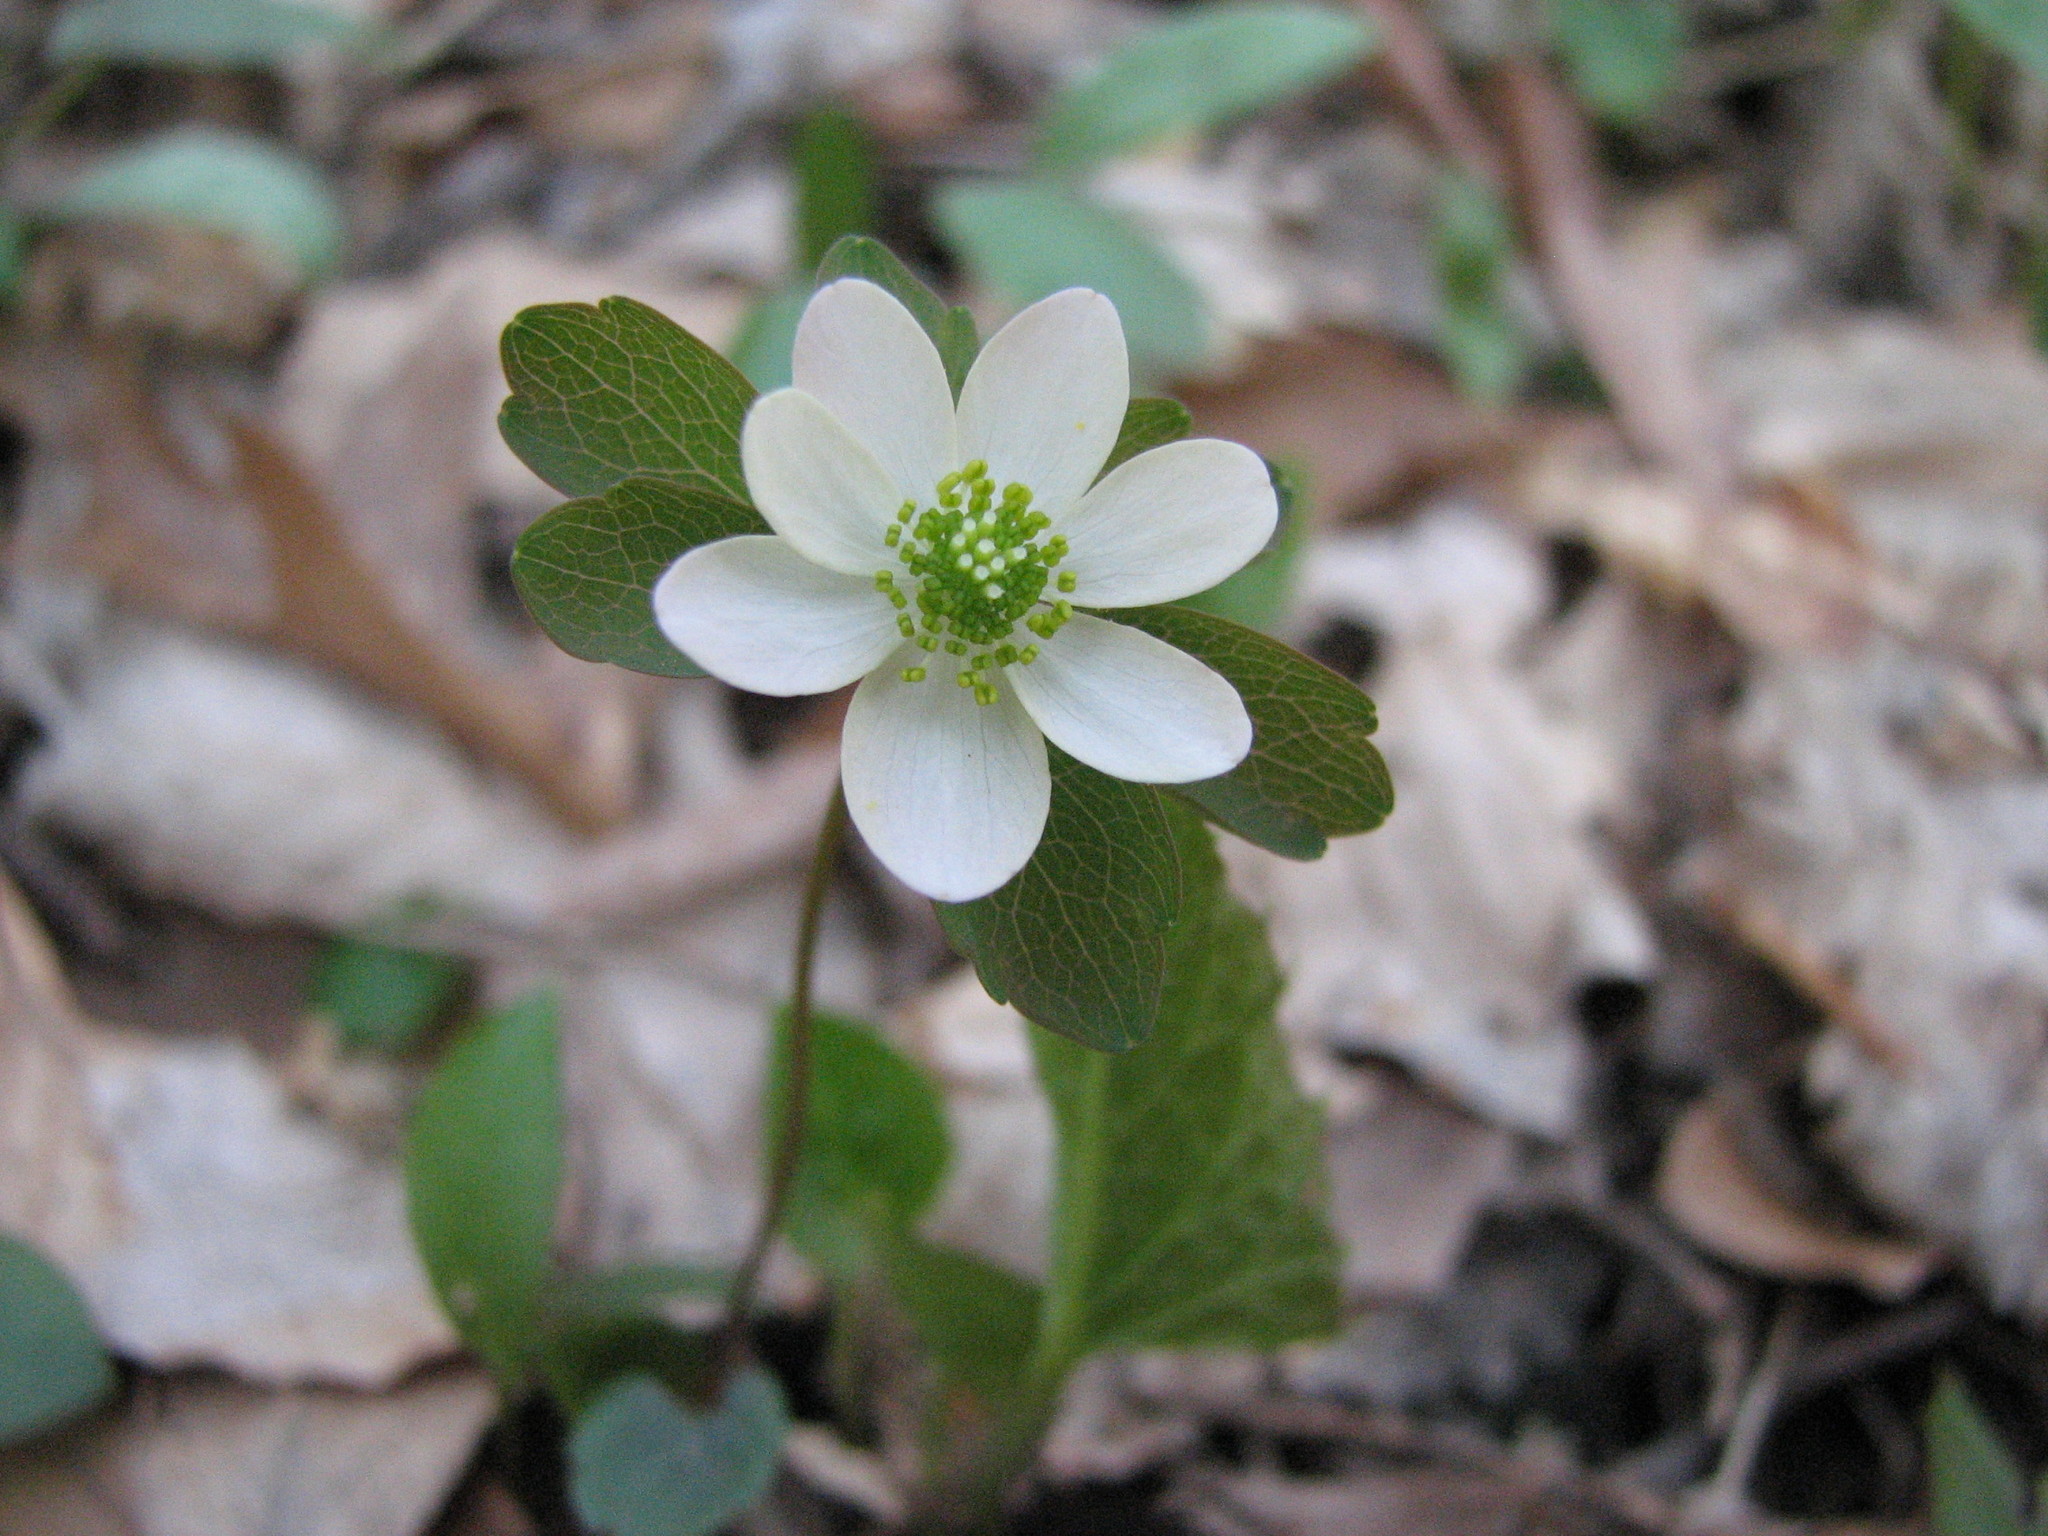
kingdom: Plantae
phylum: Tracheophyta
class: Magnoliopsida
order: Ranunculales
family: Ranunculaceae
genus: Thalictrum
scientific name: Thalictrum thalictroides
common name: Rue-anemone
